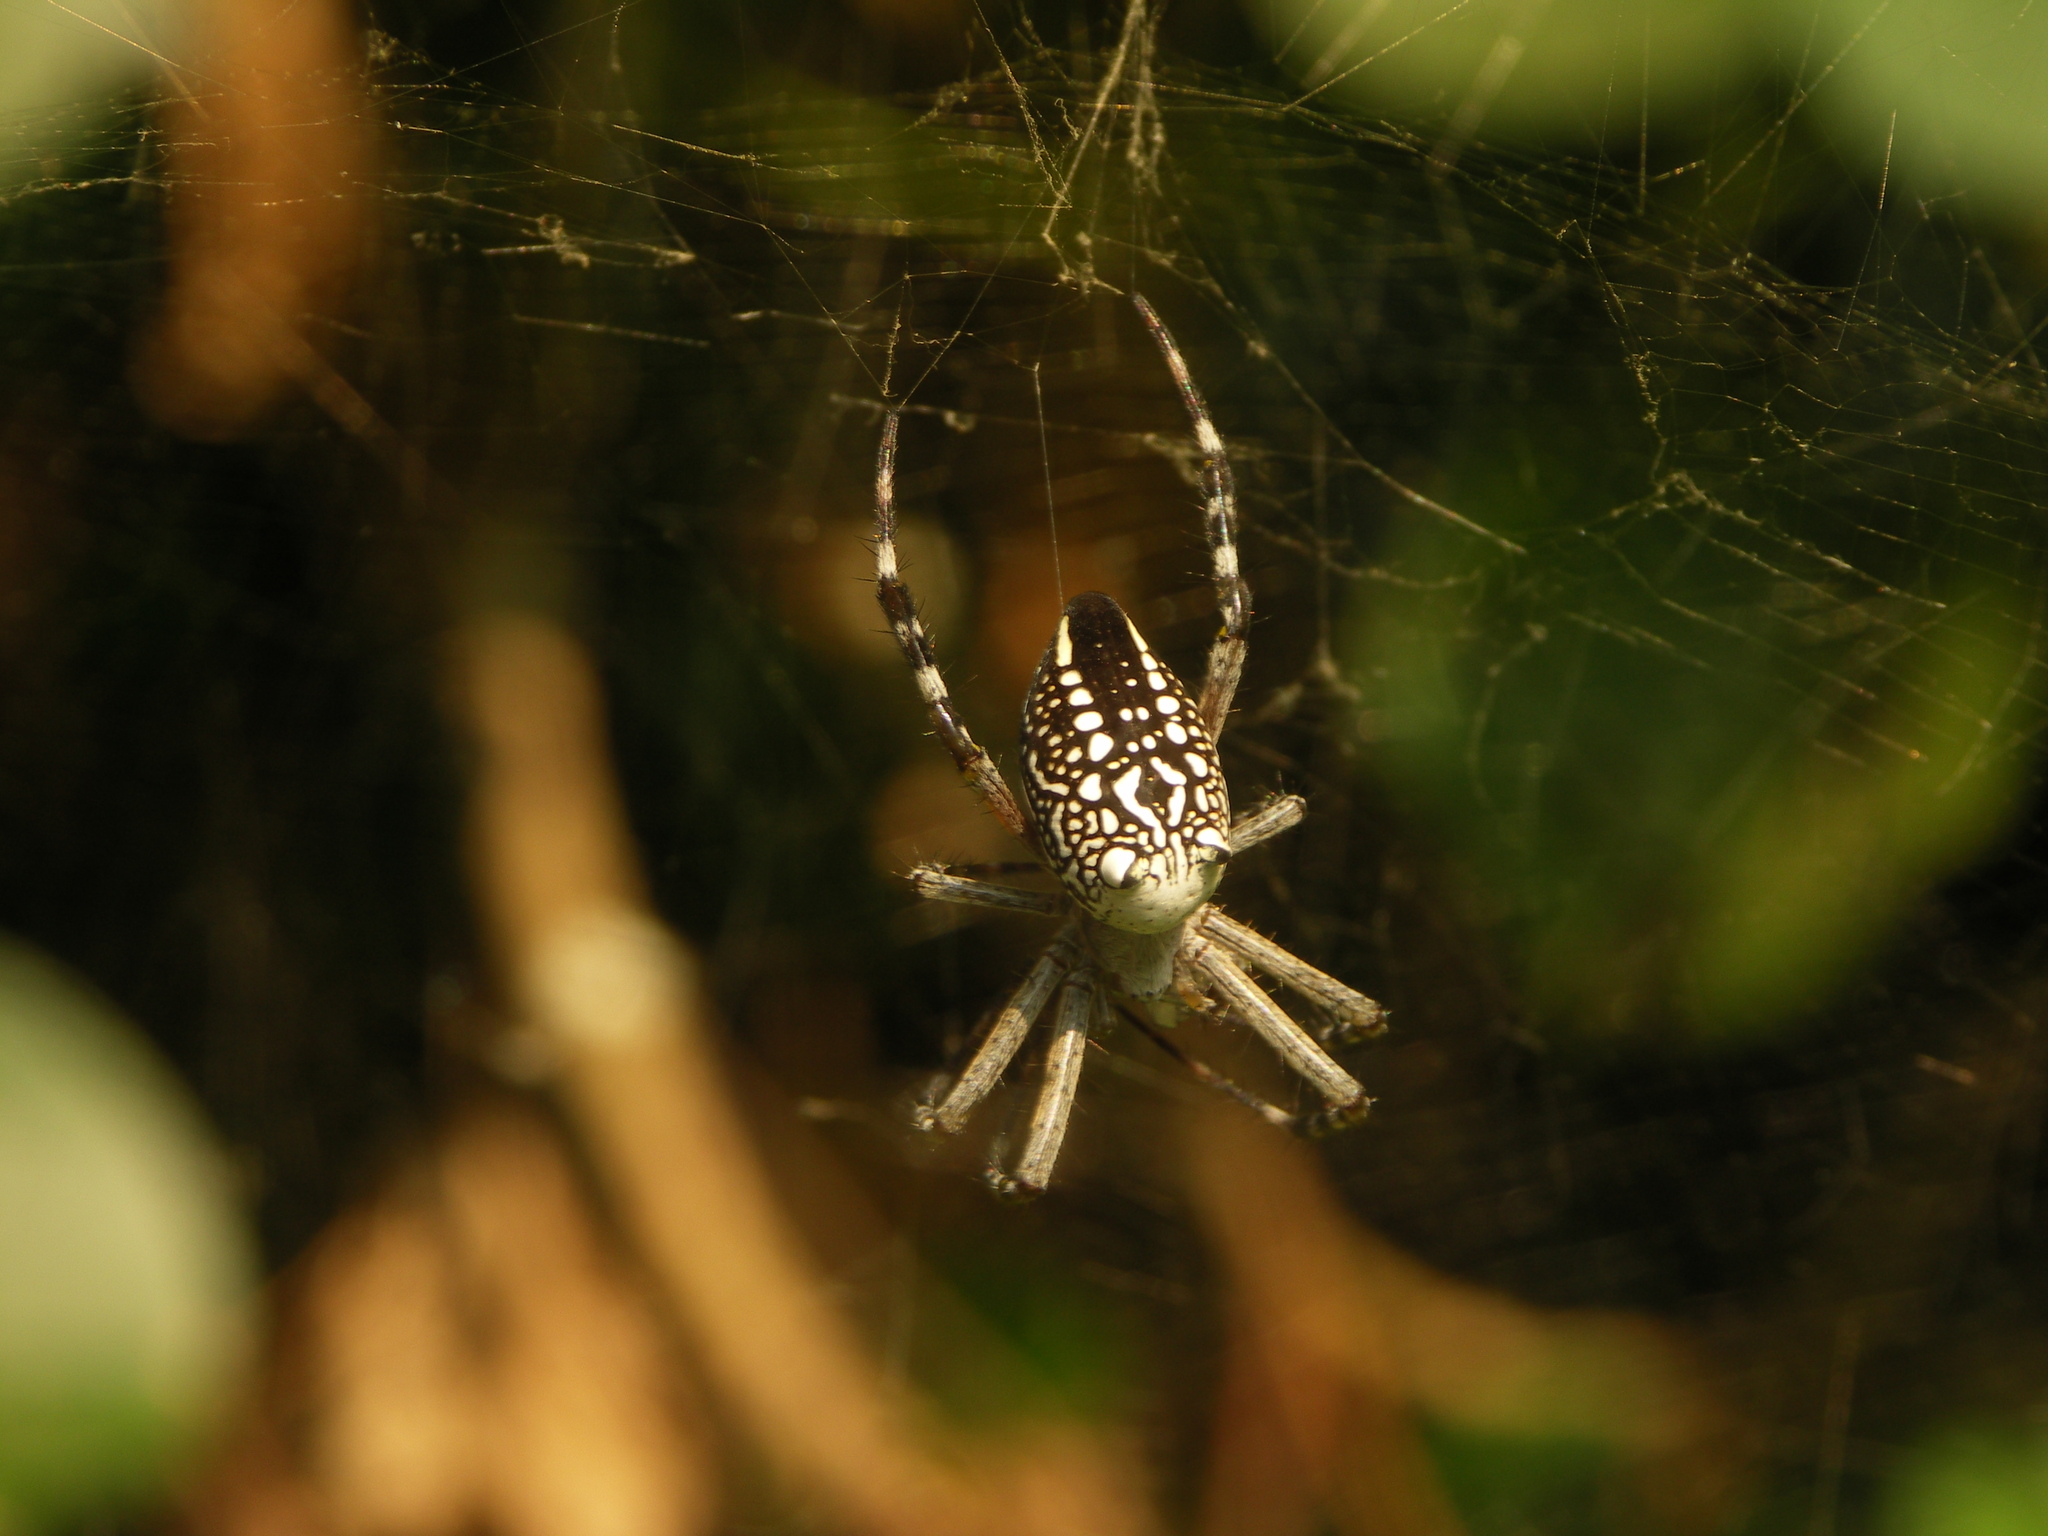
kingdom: Chromista
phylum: Ochrophyta
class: Dictyochophyceae
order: Pedinellales
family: Cyrtophoraceae
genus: Cyrtophora
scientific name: Cyrtophora moluccensis
